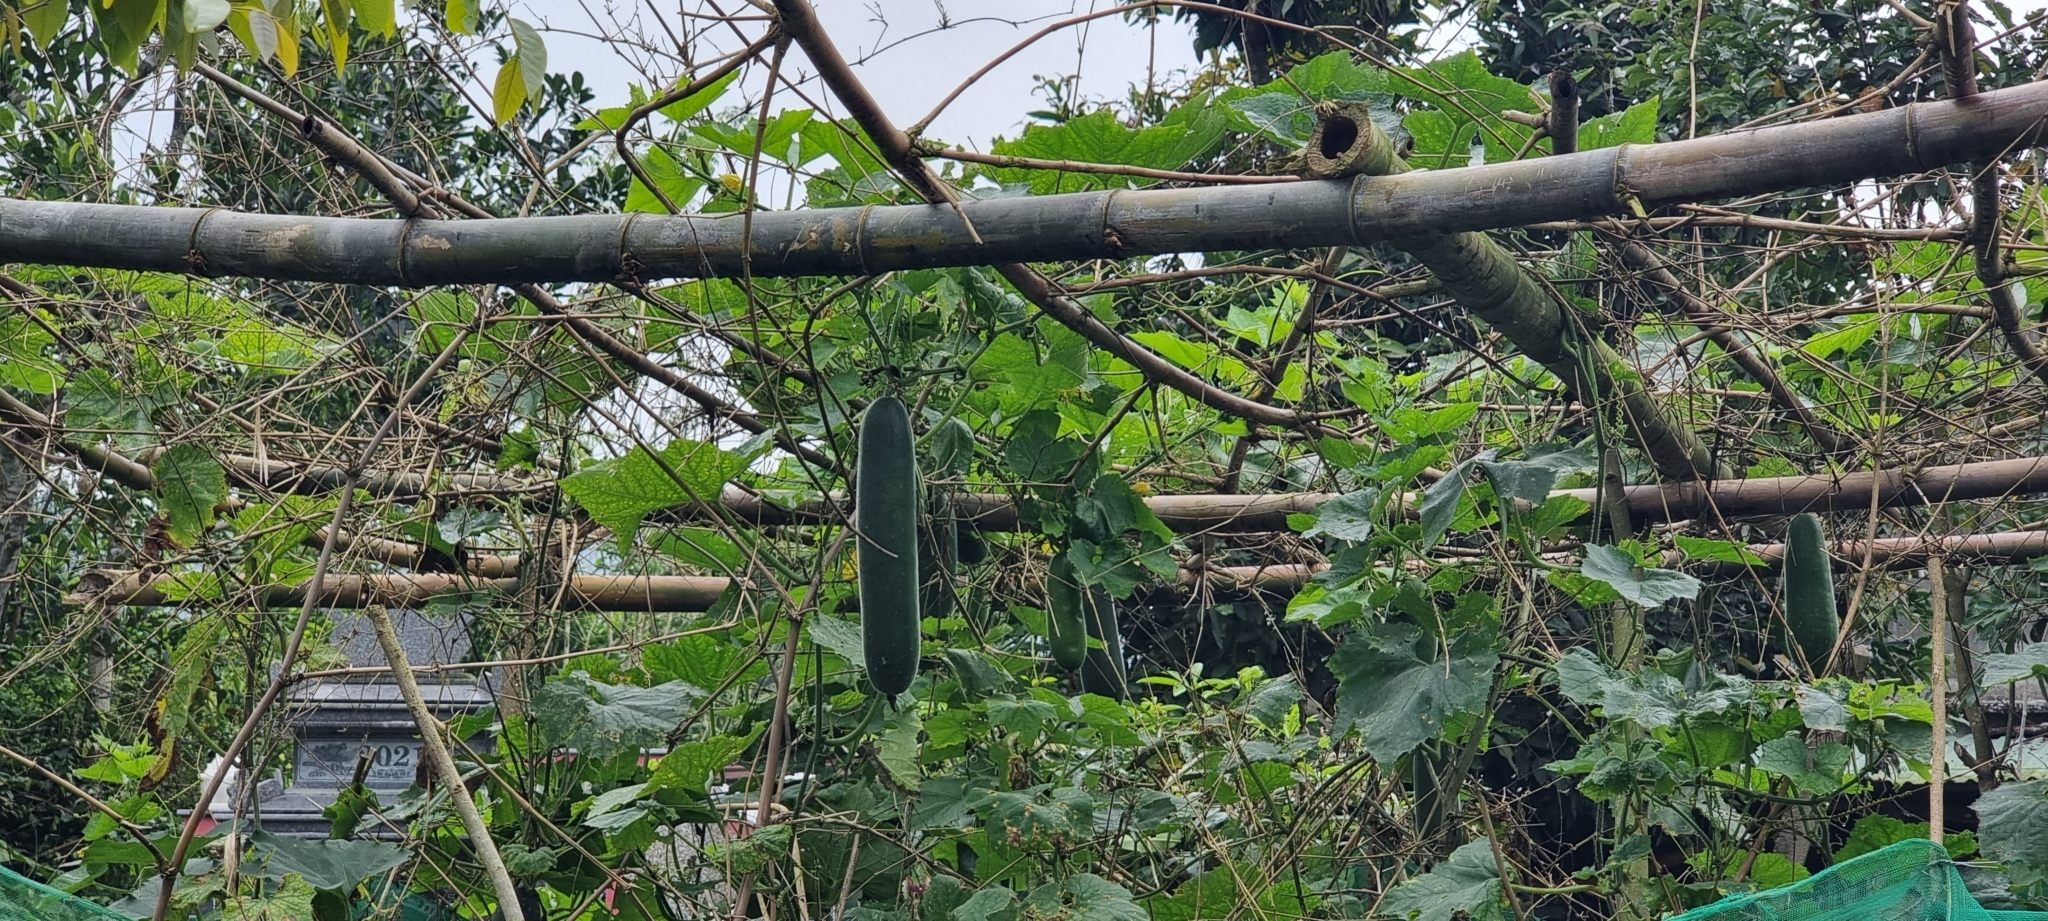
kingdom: Plantae
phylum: Tracheophyta
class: Magnoliopsida
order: Cucurbitales
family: Cucurbitaceae
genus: Benincasa
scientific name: Benincasa hispida
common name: Chinese-watermelon
